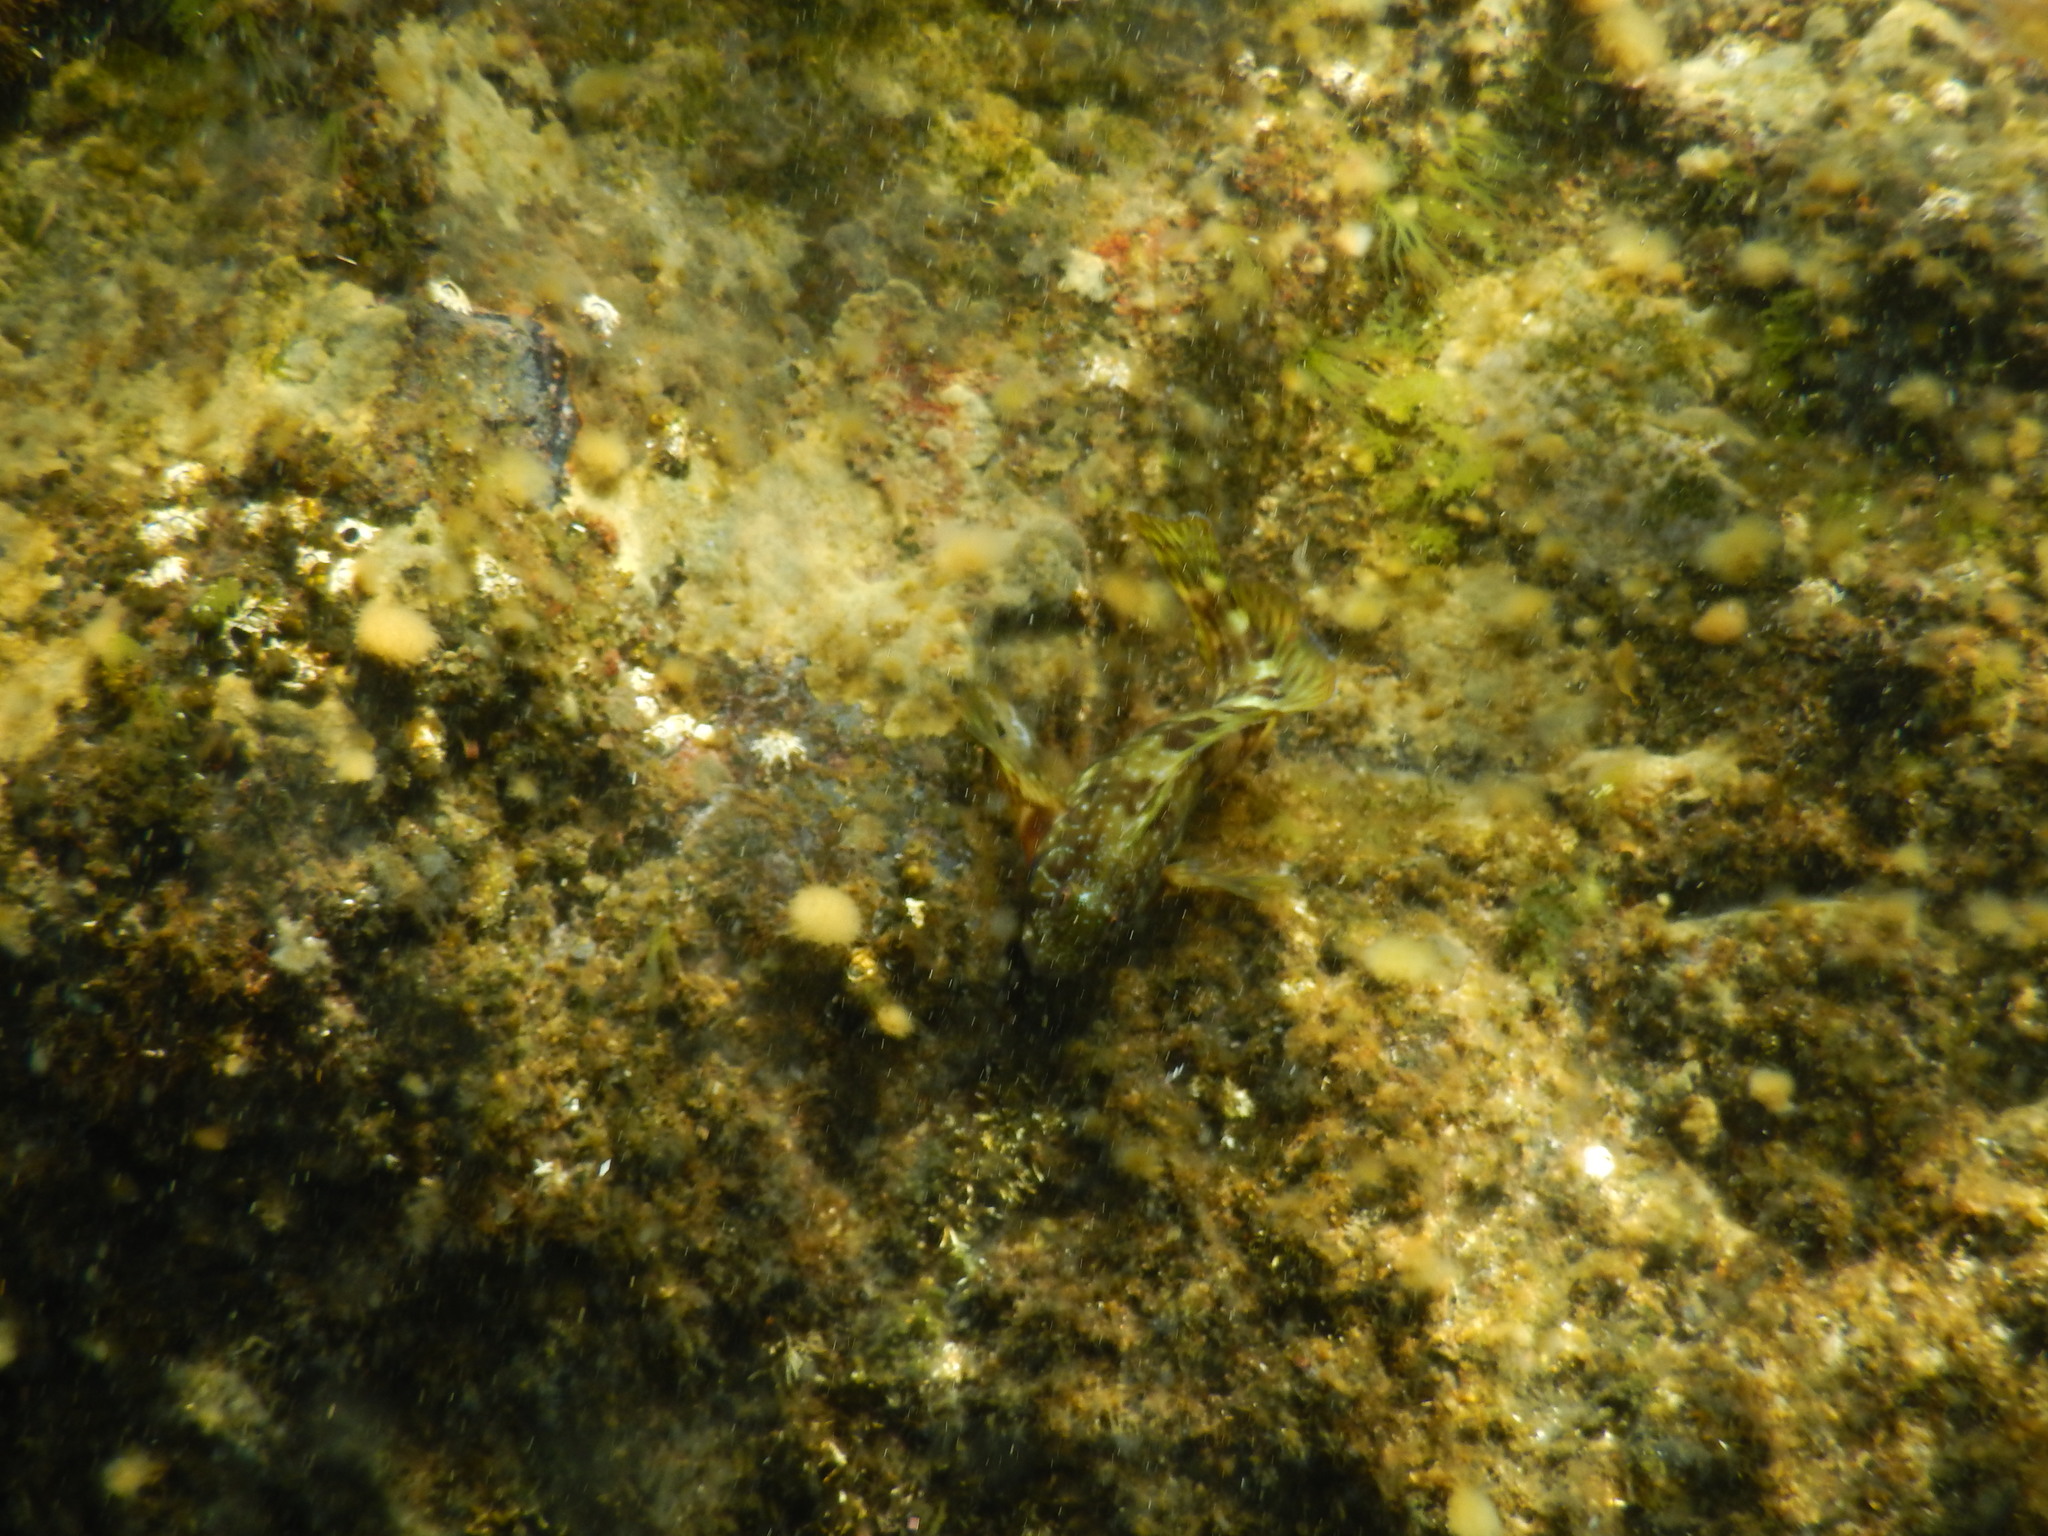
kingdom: Animalia
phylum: Chordata
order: Perciformes
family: Blenniidae
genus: Scartella
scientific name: Scartella cristata
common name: Molly miller
